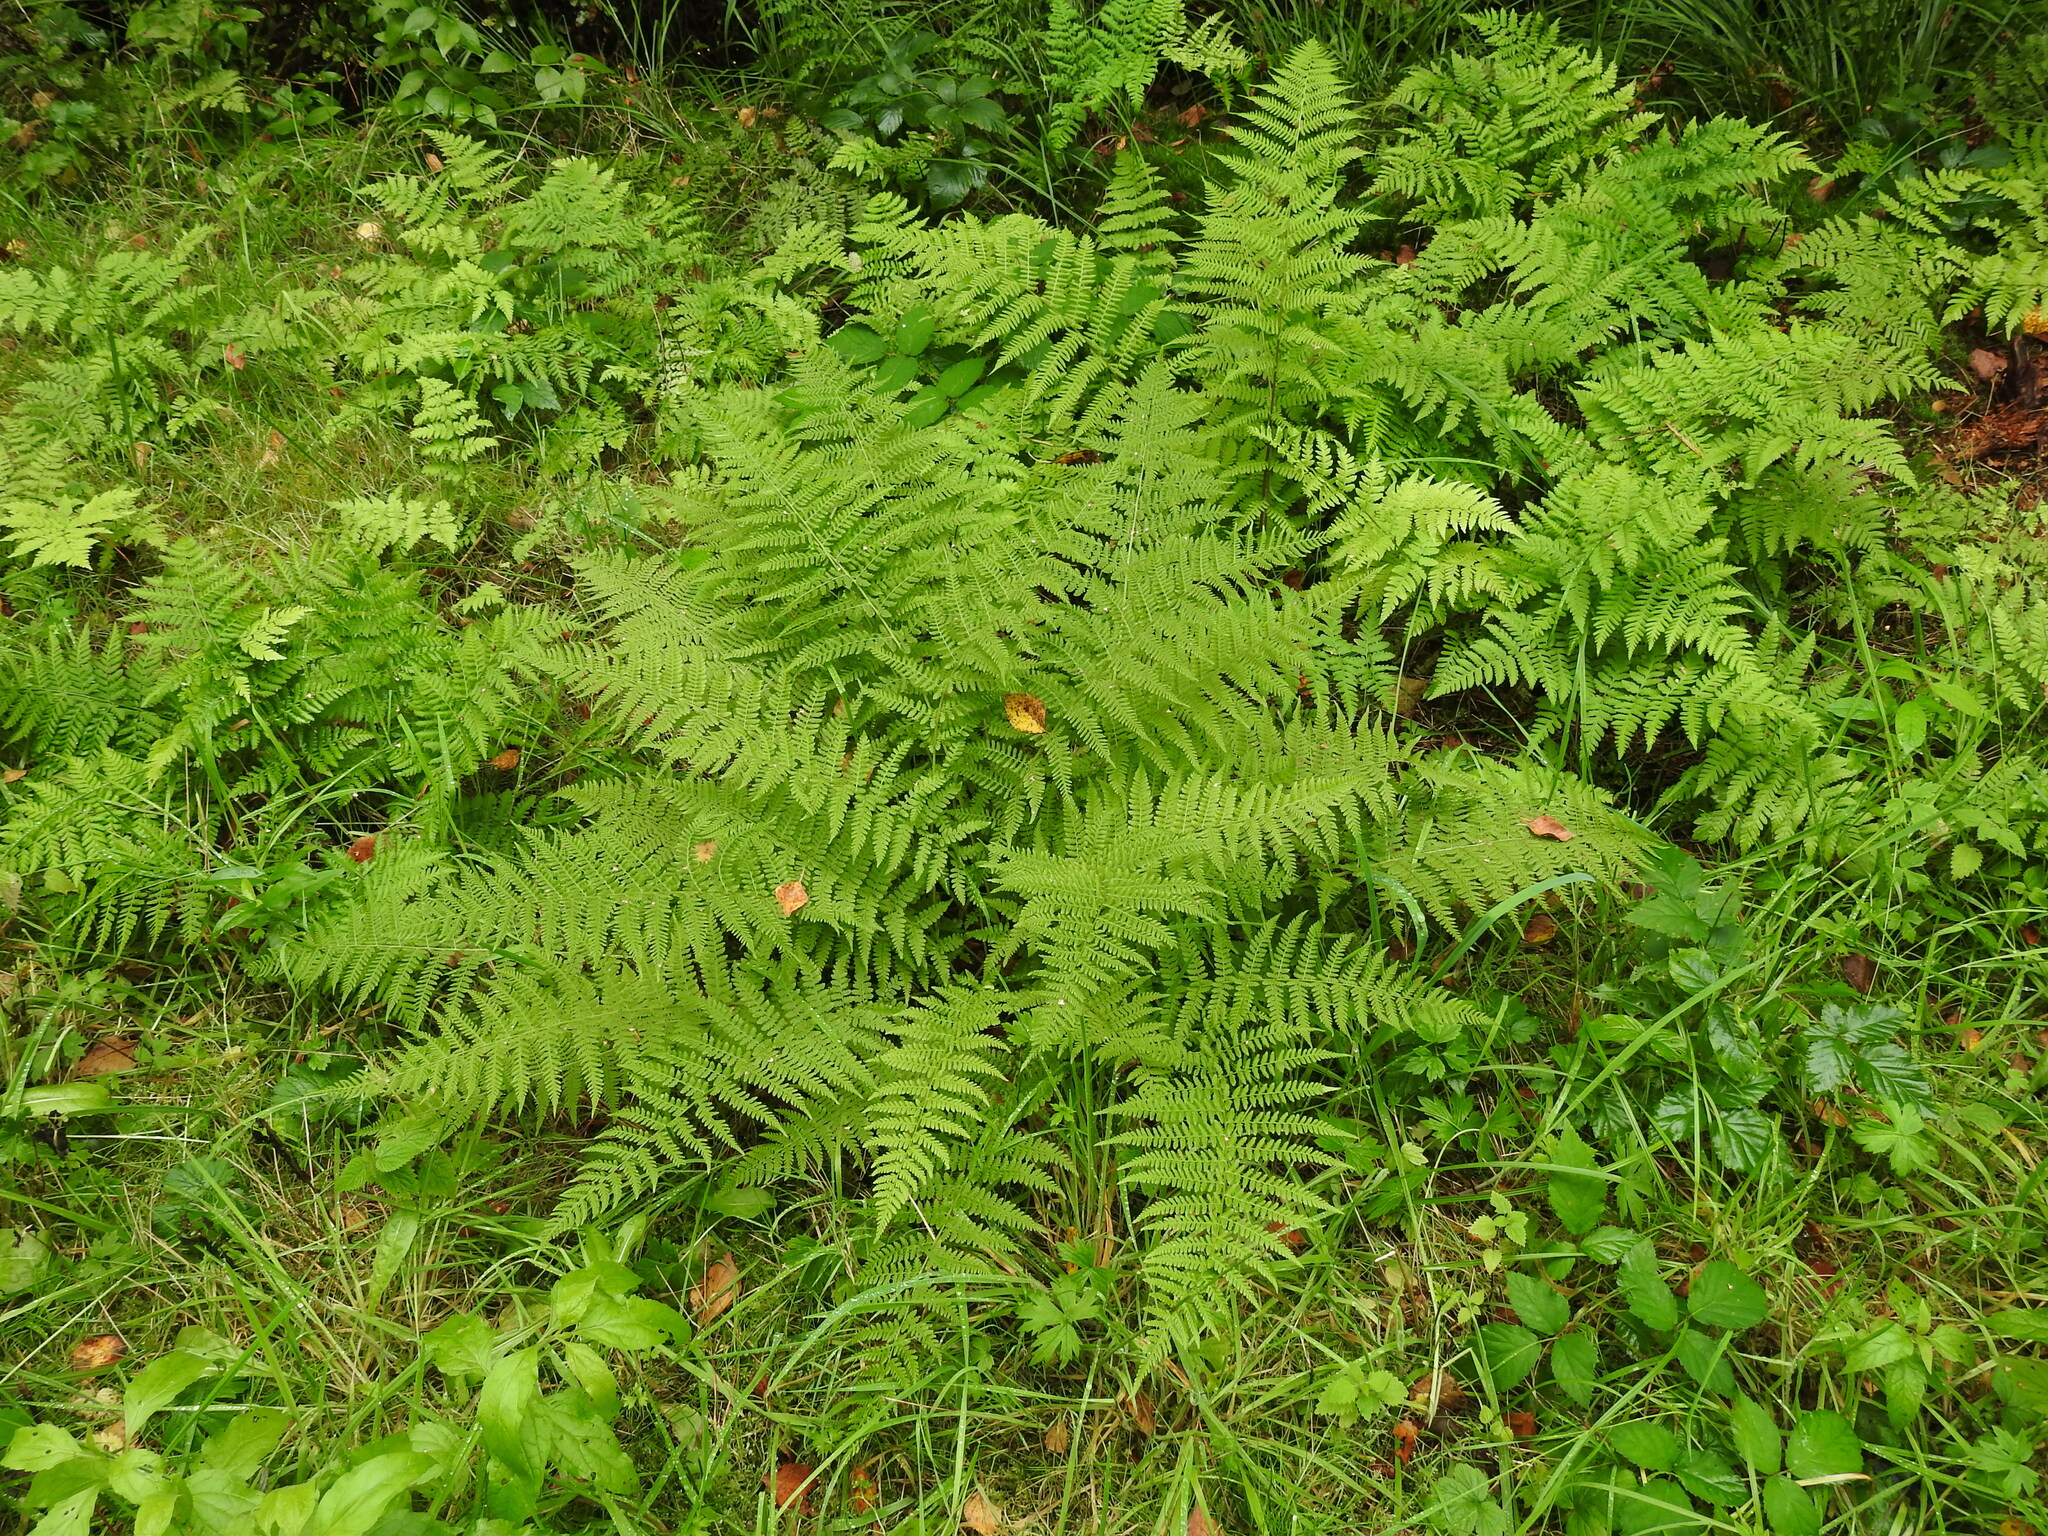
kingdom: Plantae
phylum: Tracheophyta
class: Polypodiopsida
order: Polypodiales
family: Athyriaceae
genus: Athyrium
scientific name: Athyrium filix-femina
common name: Lady fern
